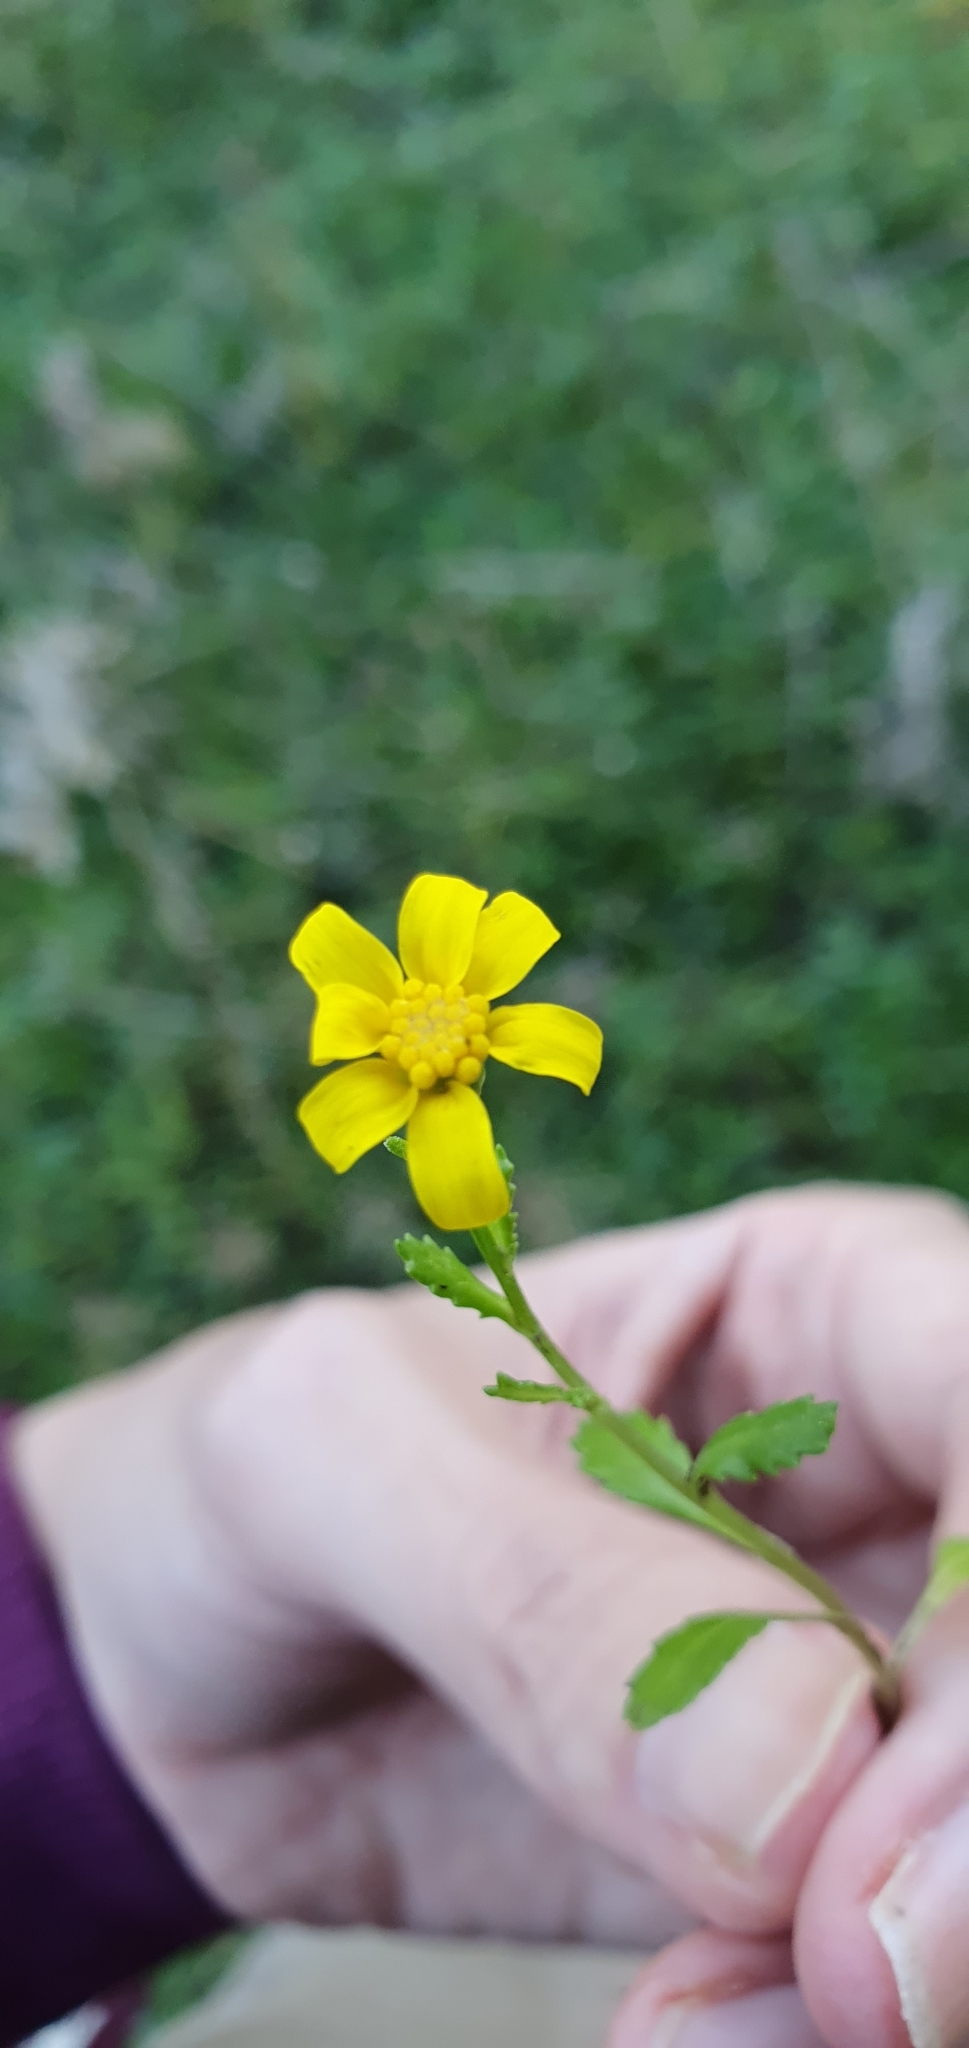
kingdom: Plantae
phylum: Tracheophyta
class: Magnoliopsida
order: Asterales
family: Asteraceae
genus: Senecio
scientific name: Senecio leucanthemifolius
